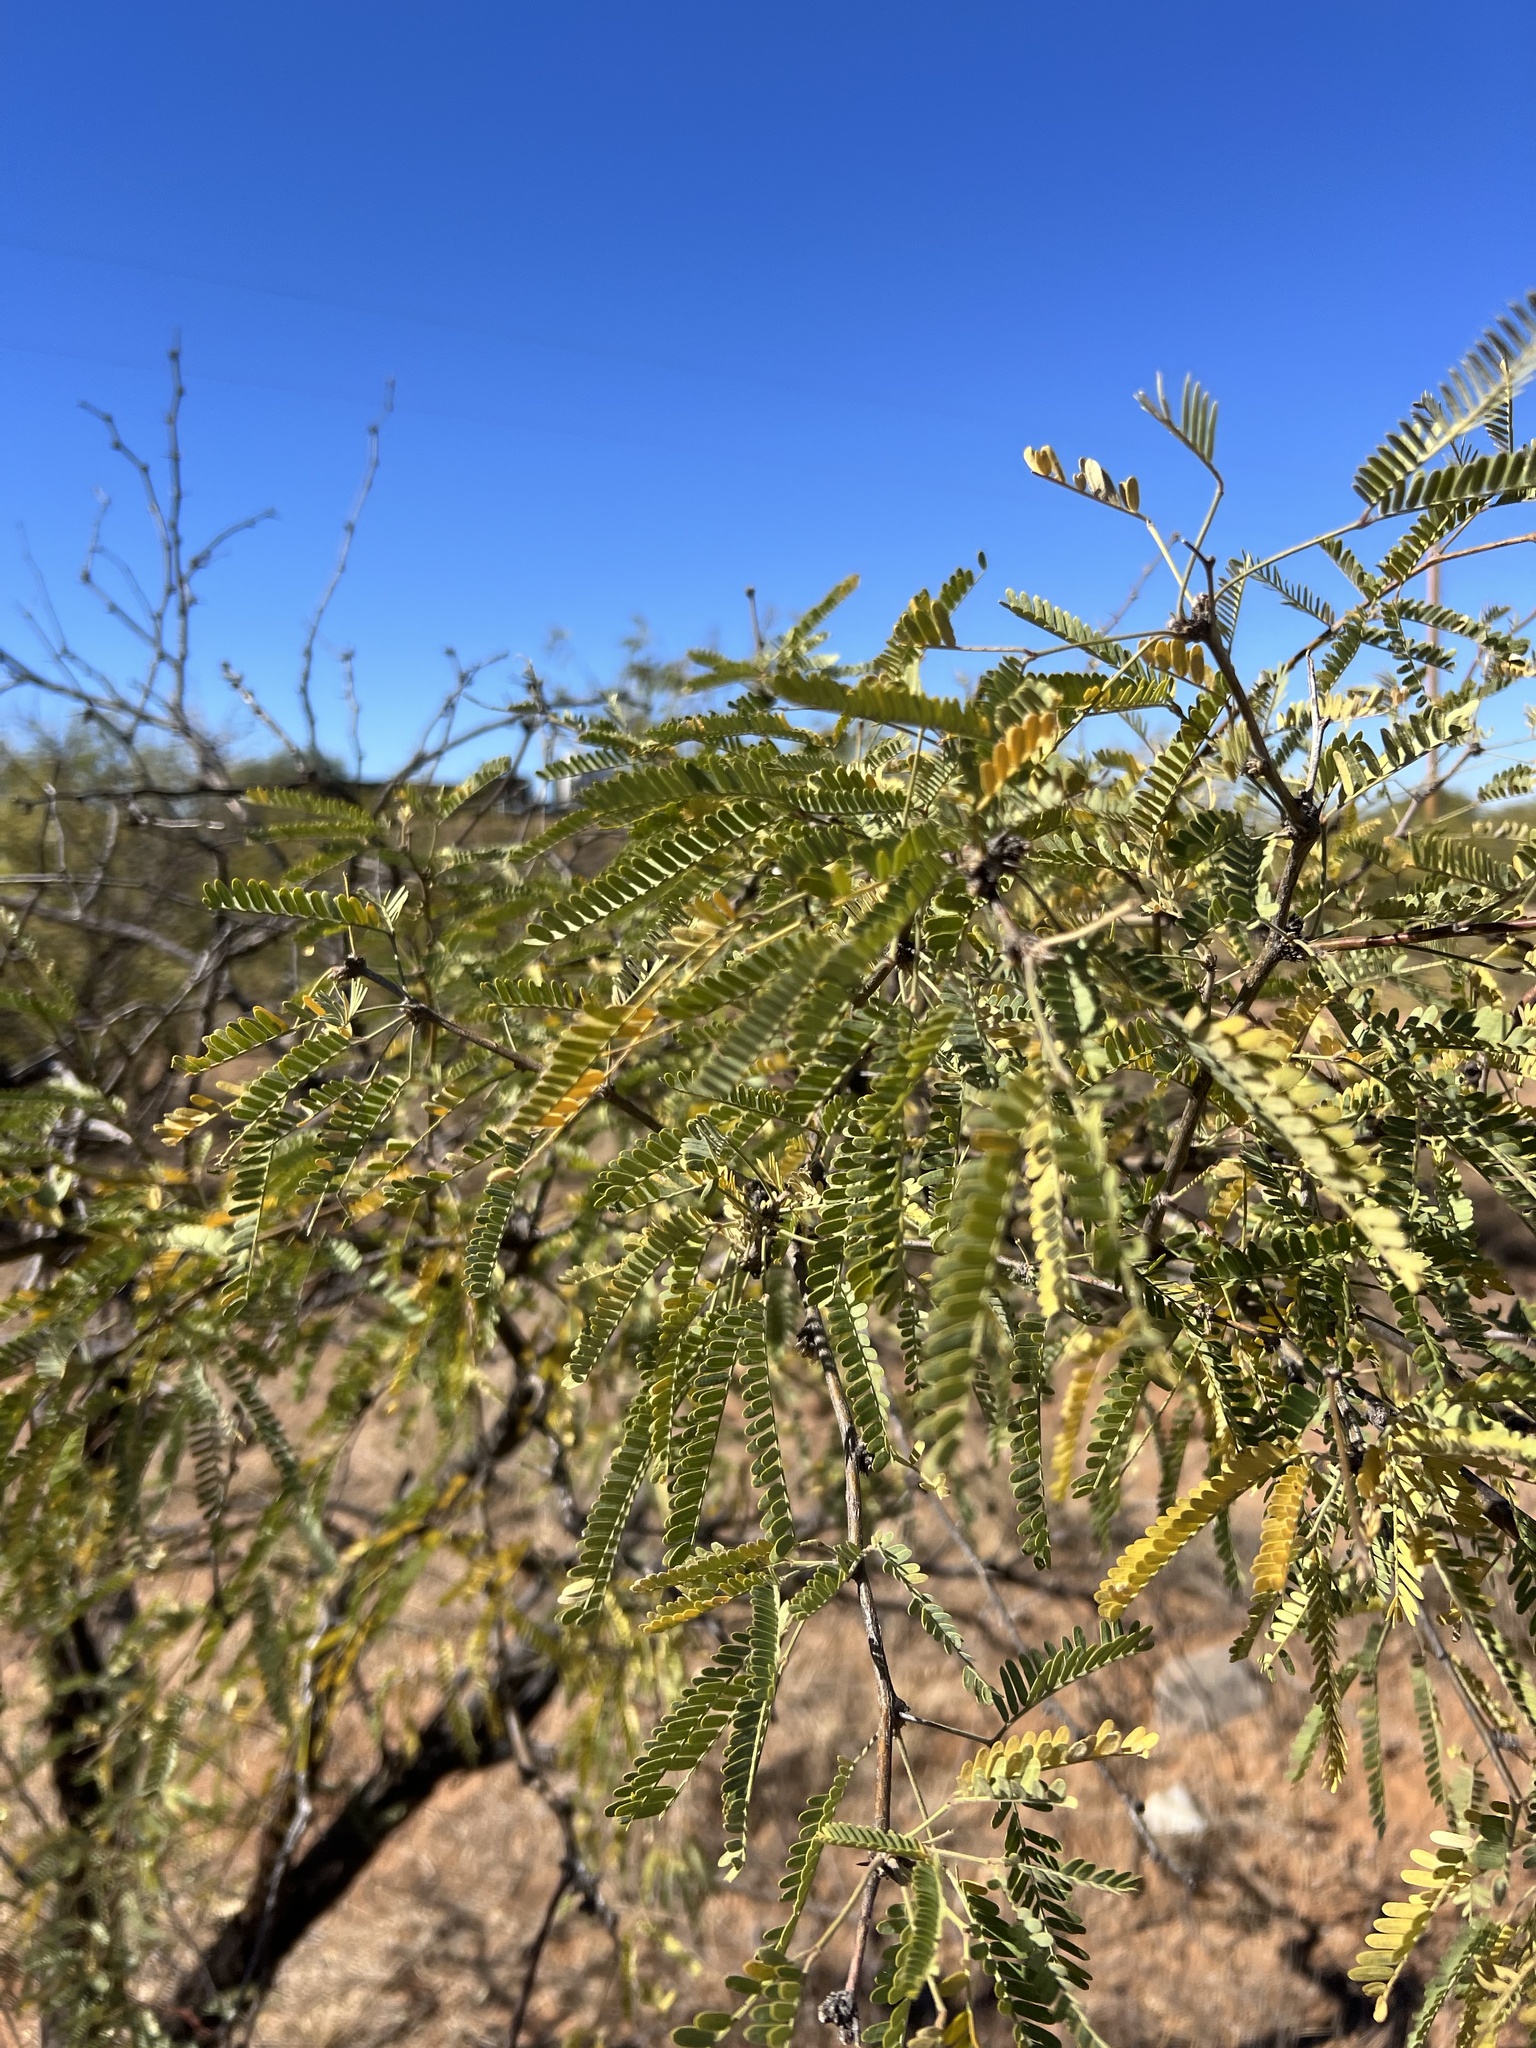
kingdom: Plantae
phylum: Tracheophyta
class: Magnoliopsida
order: Fabales
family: Fabaceae
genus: Prosopis
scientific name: Prosopis velutina
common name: Velvet mesquite
